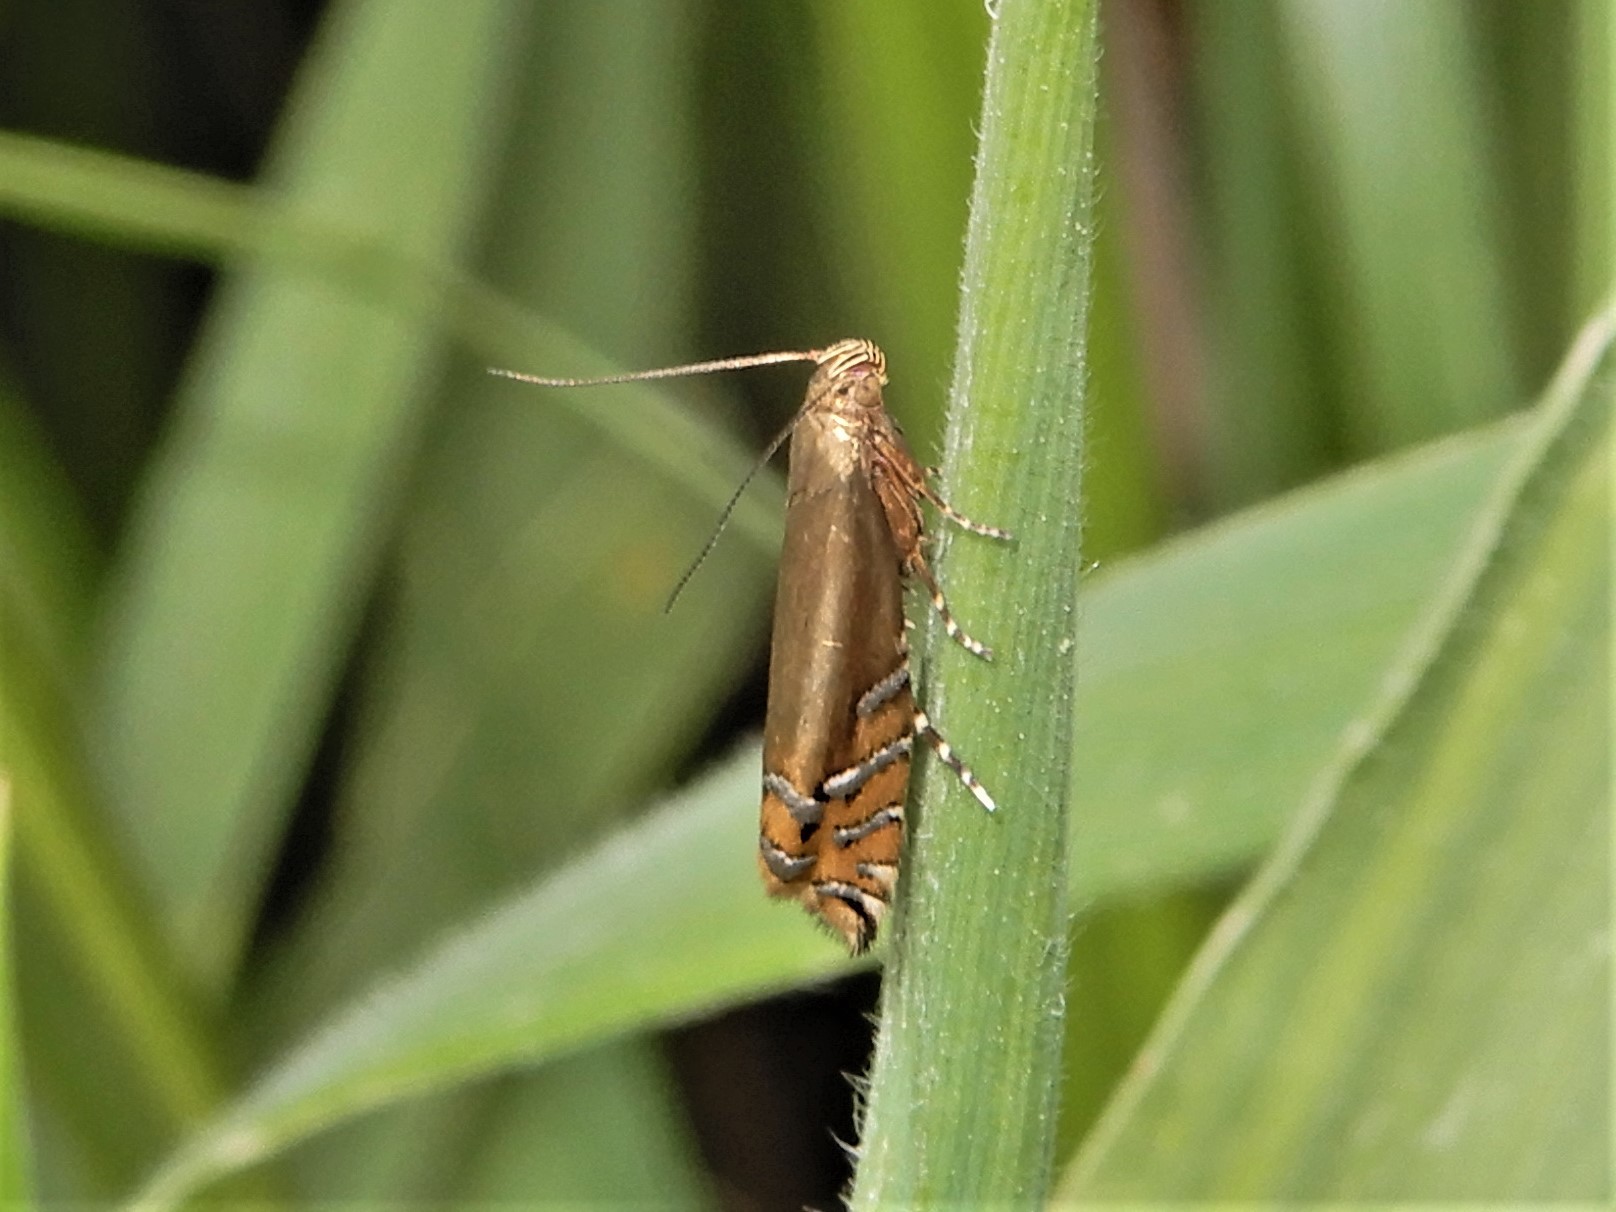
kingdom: Animalia
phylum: Arthropoda
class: Insecta
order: Lepidoptera
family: Glyphipterigidae
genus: Glyphipterix
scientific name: Glyphipterix scintilella
